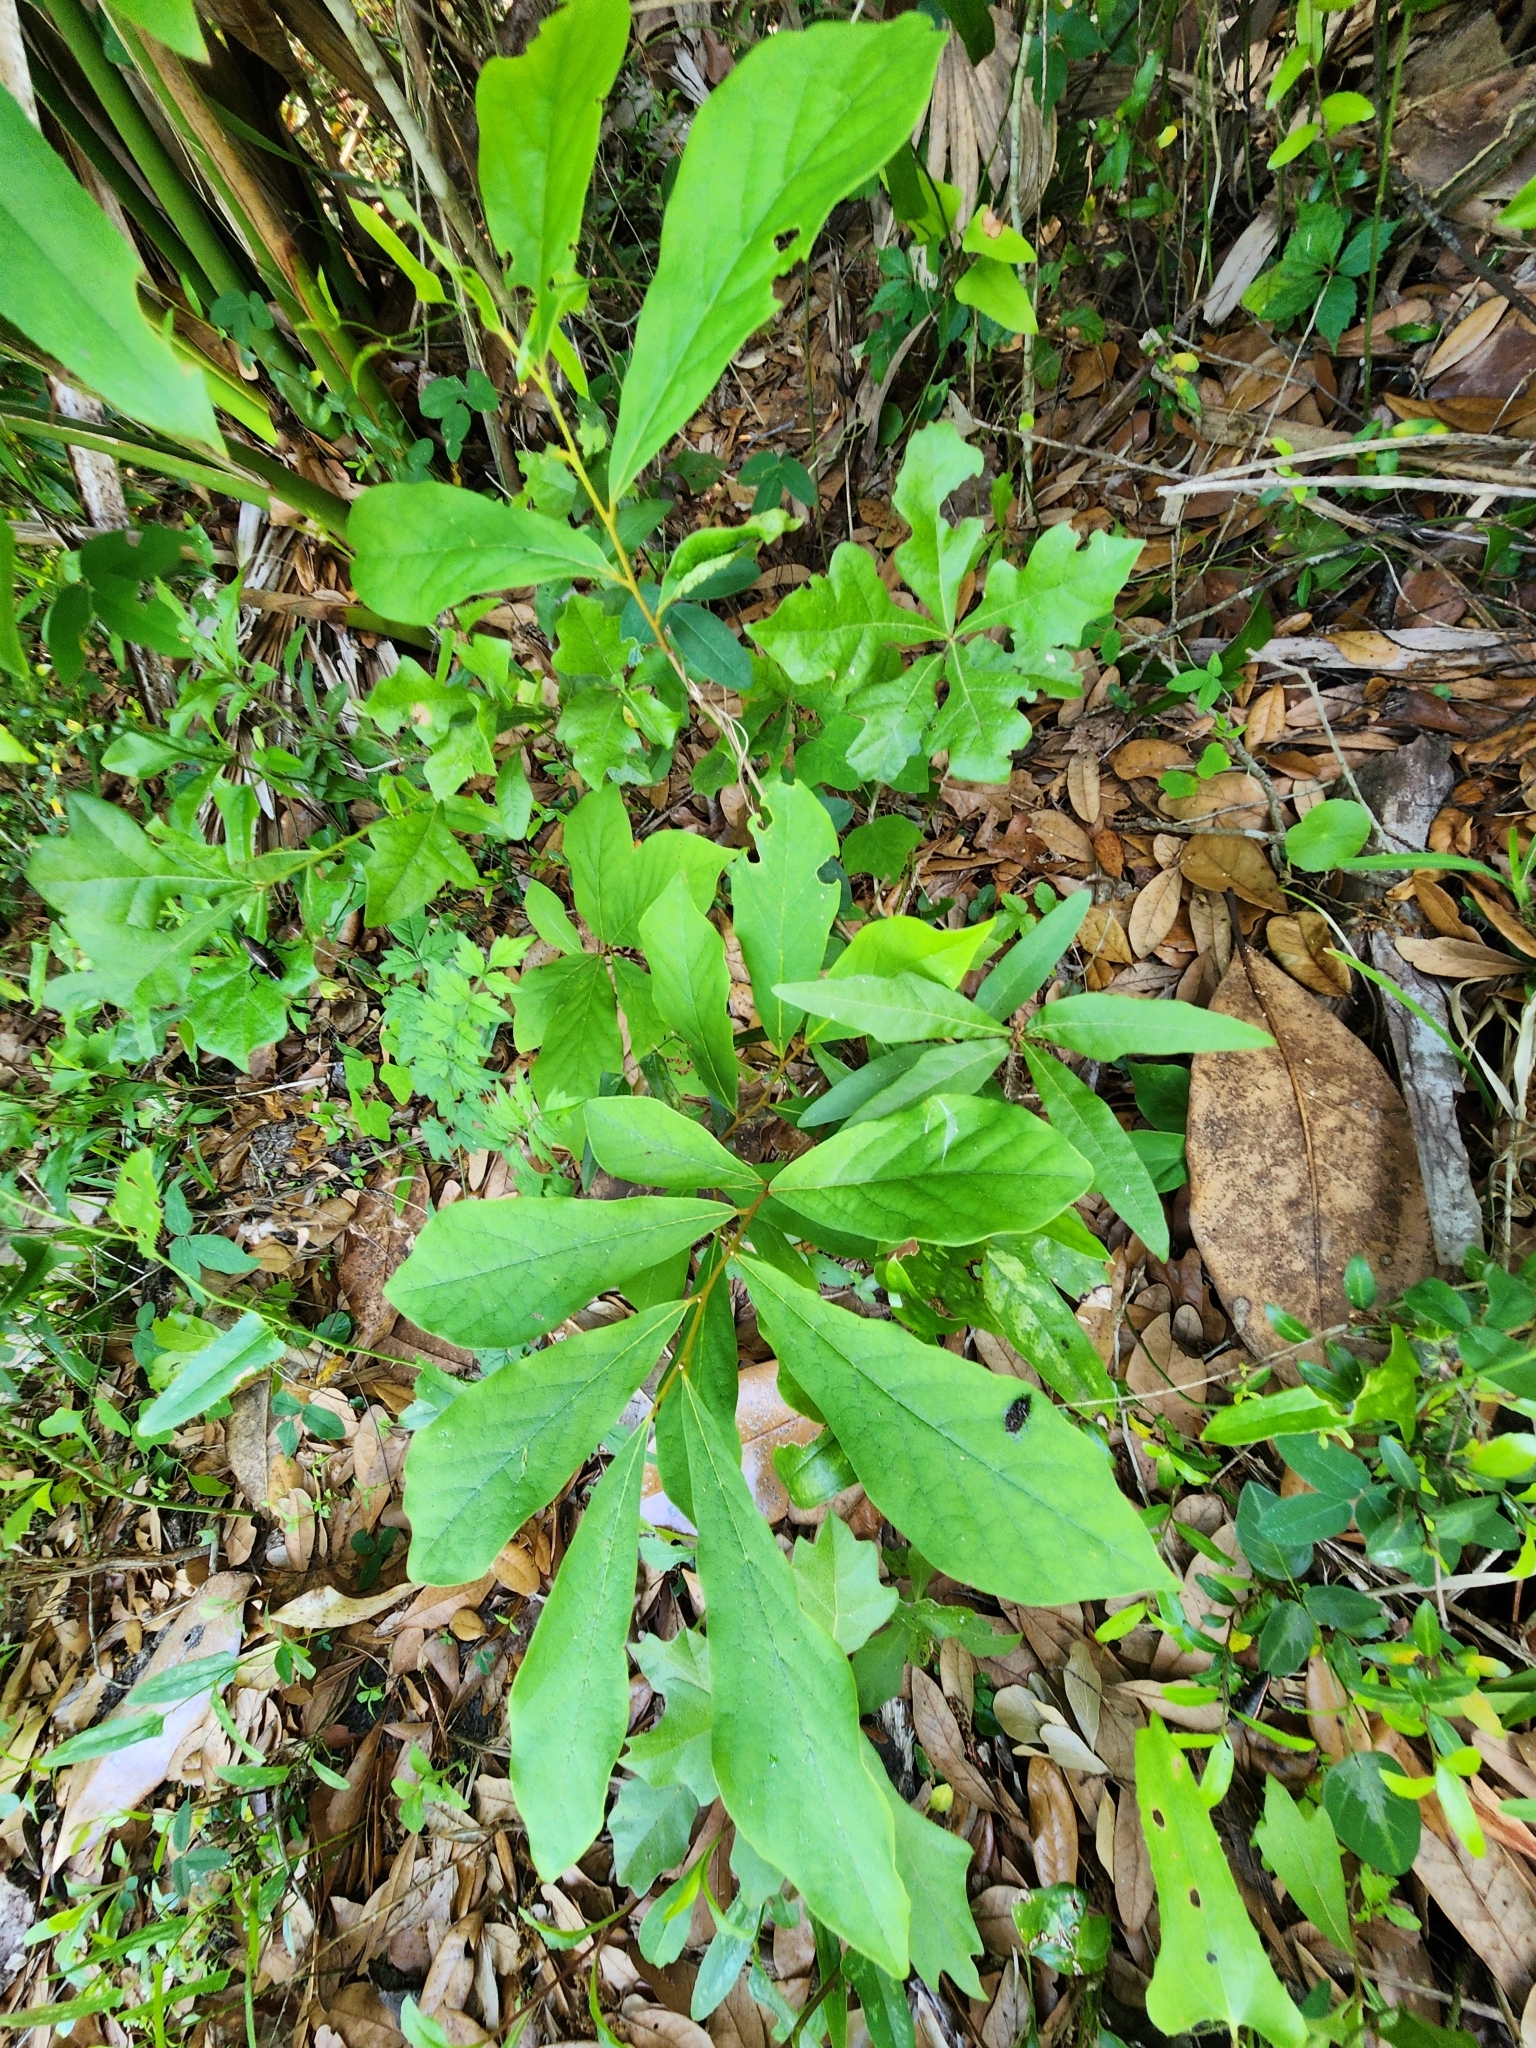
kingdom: Plantae
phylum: Tracheophyta
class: Magnoliopsida
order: Magnoliales
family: Annonaceae
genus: Asimina
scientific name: Asimina parviflora
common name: Dwarf pawpaw
